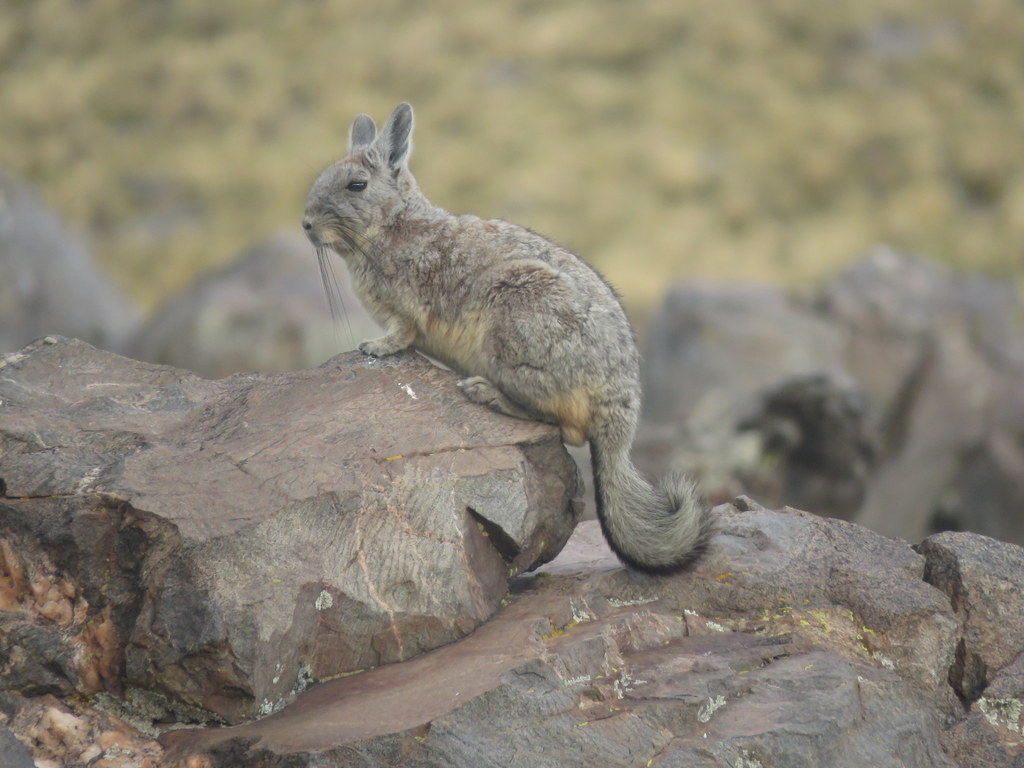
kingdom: Animalia
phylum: Chordata
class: Mammalia
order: Rodentia
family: Chinchillidae
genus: Lagidium
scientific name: Lagidium viscacia
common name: Southern viscacha
